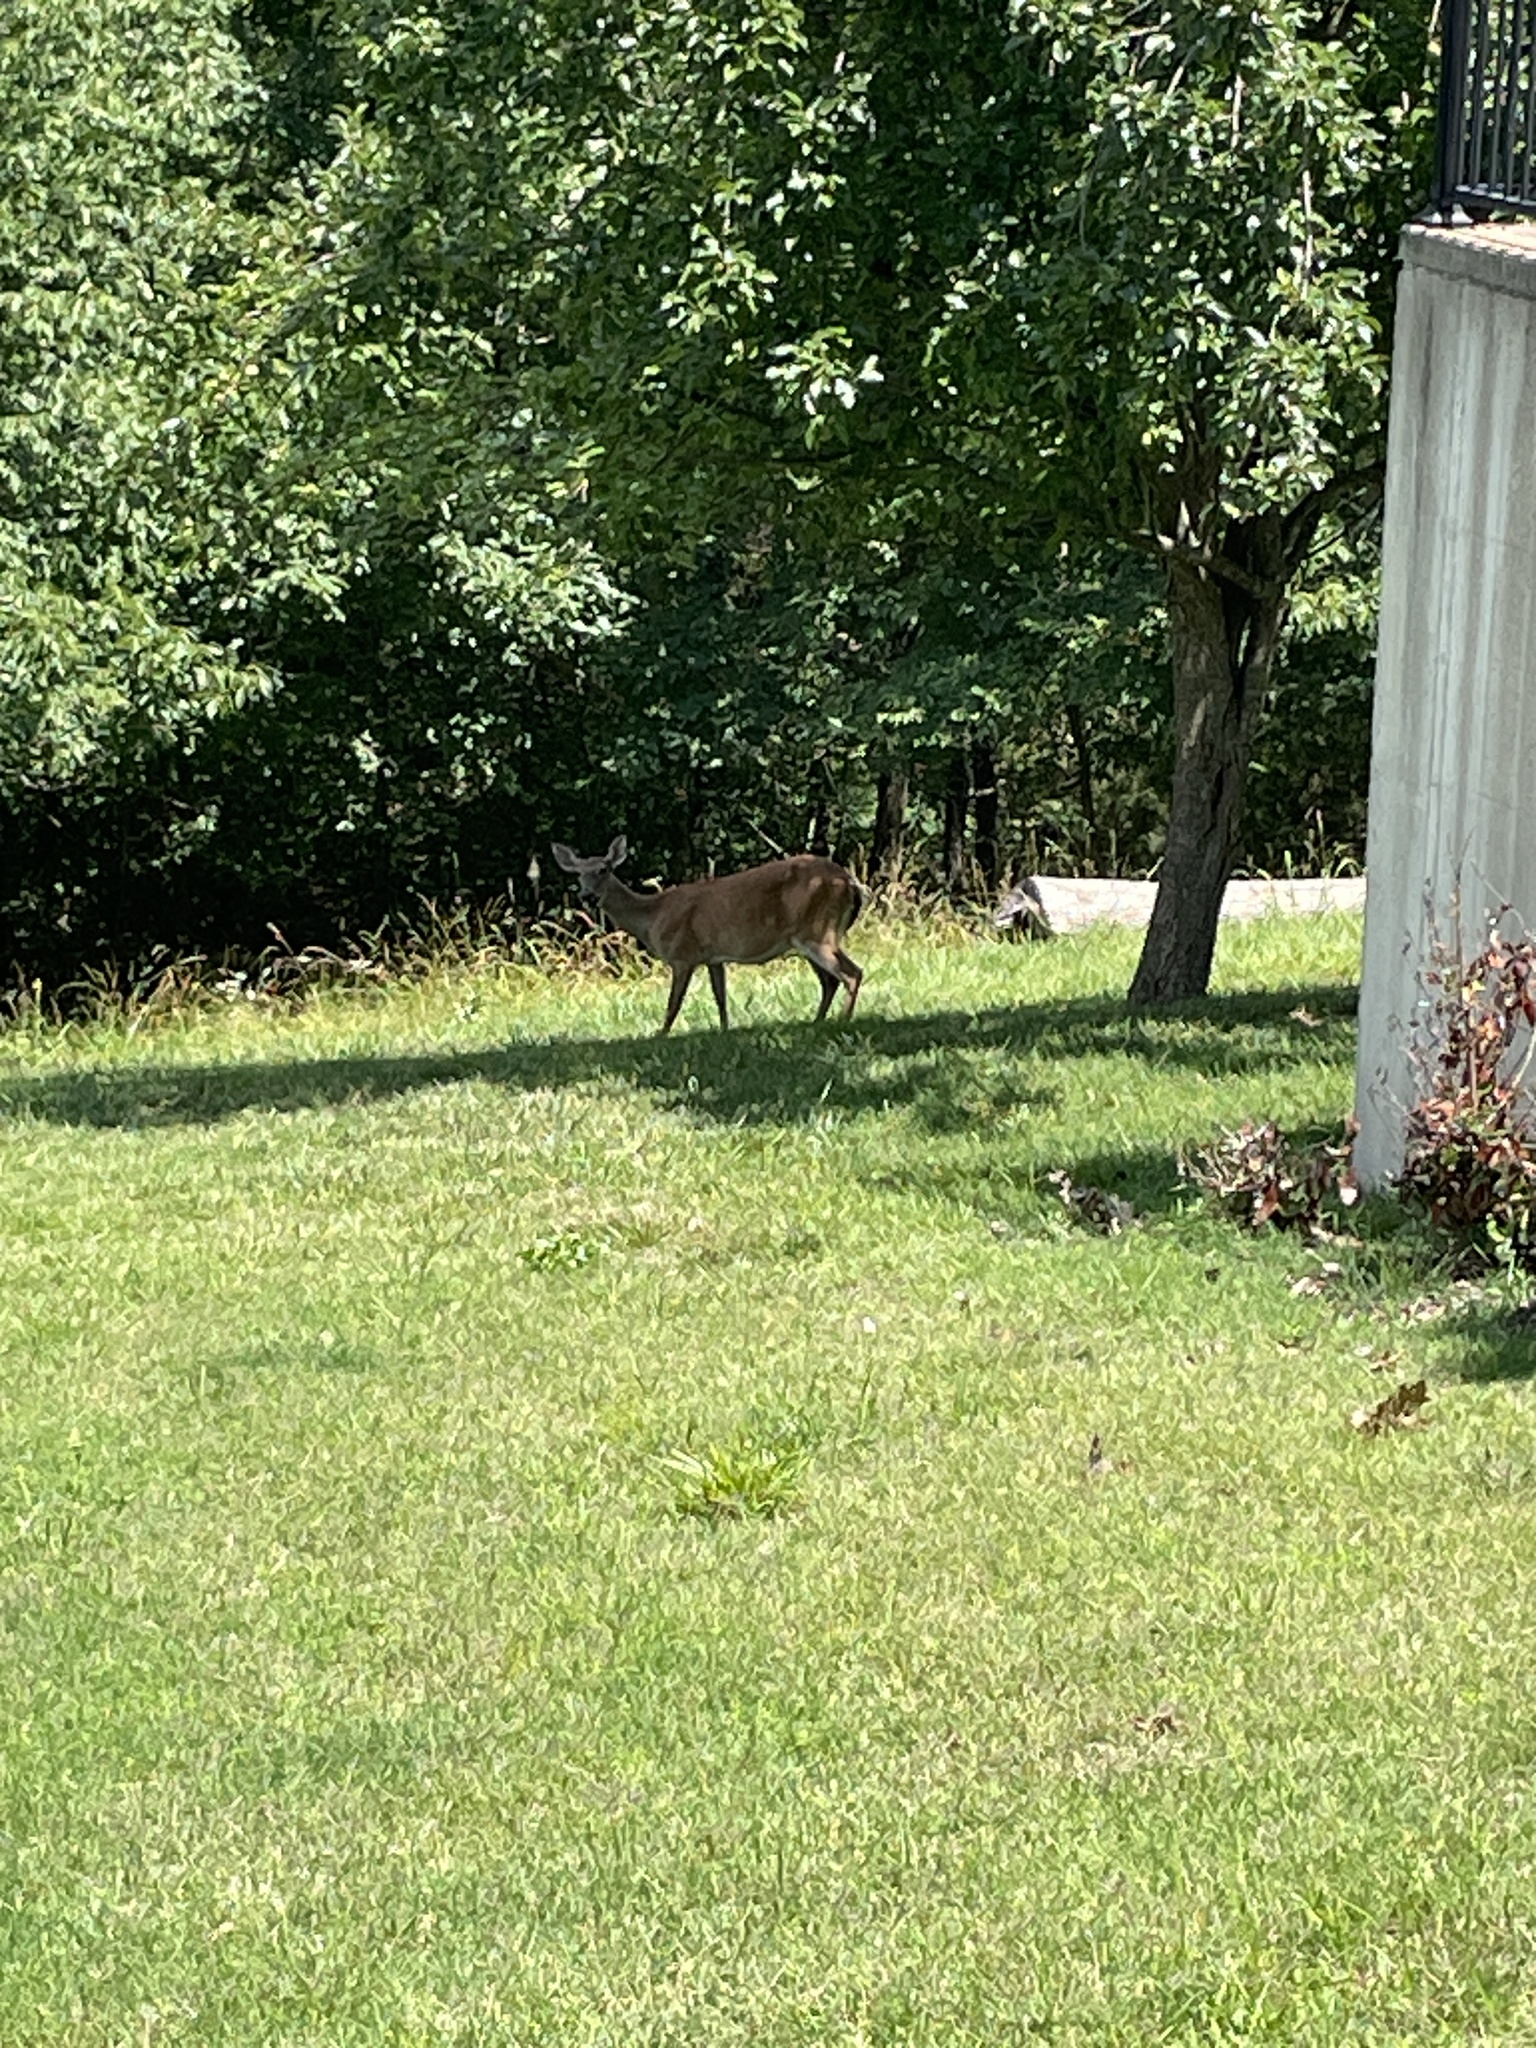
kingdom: Animalia
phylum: Chordata
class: Mammalia
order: Artiodactyla
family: Cervidae
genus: Odocoileus
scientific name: Odocoileus virginianus
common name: White-tailed deer
